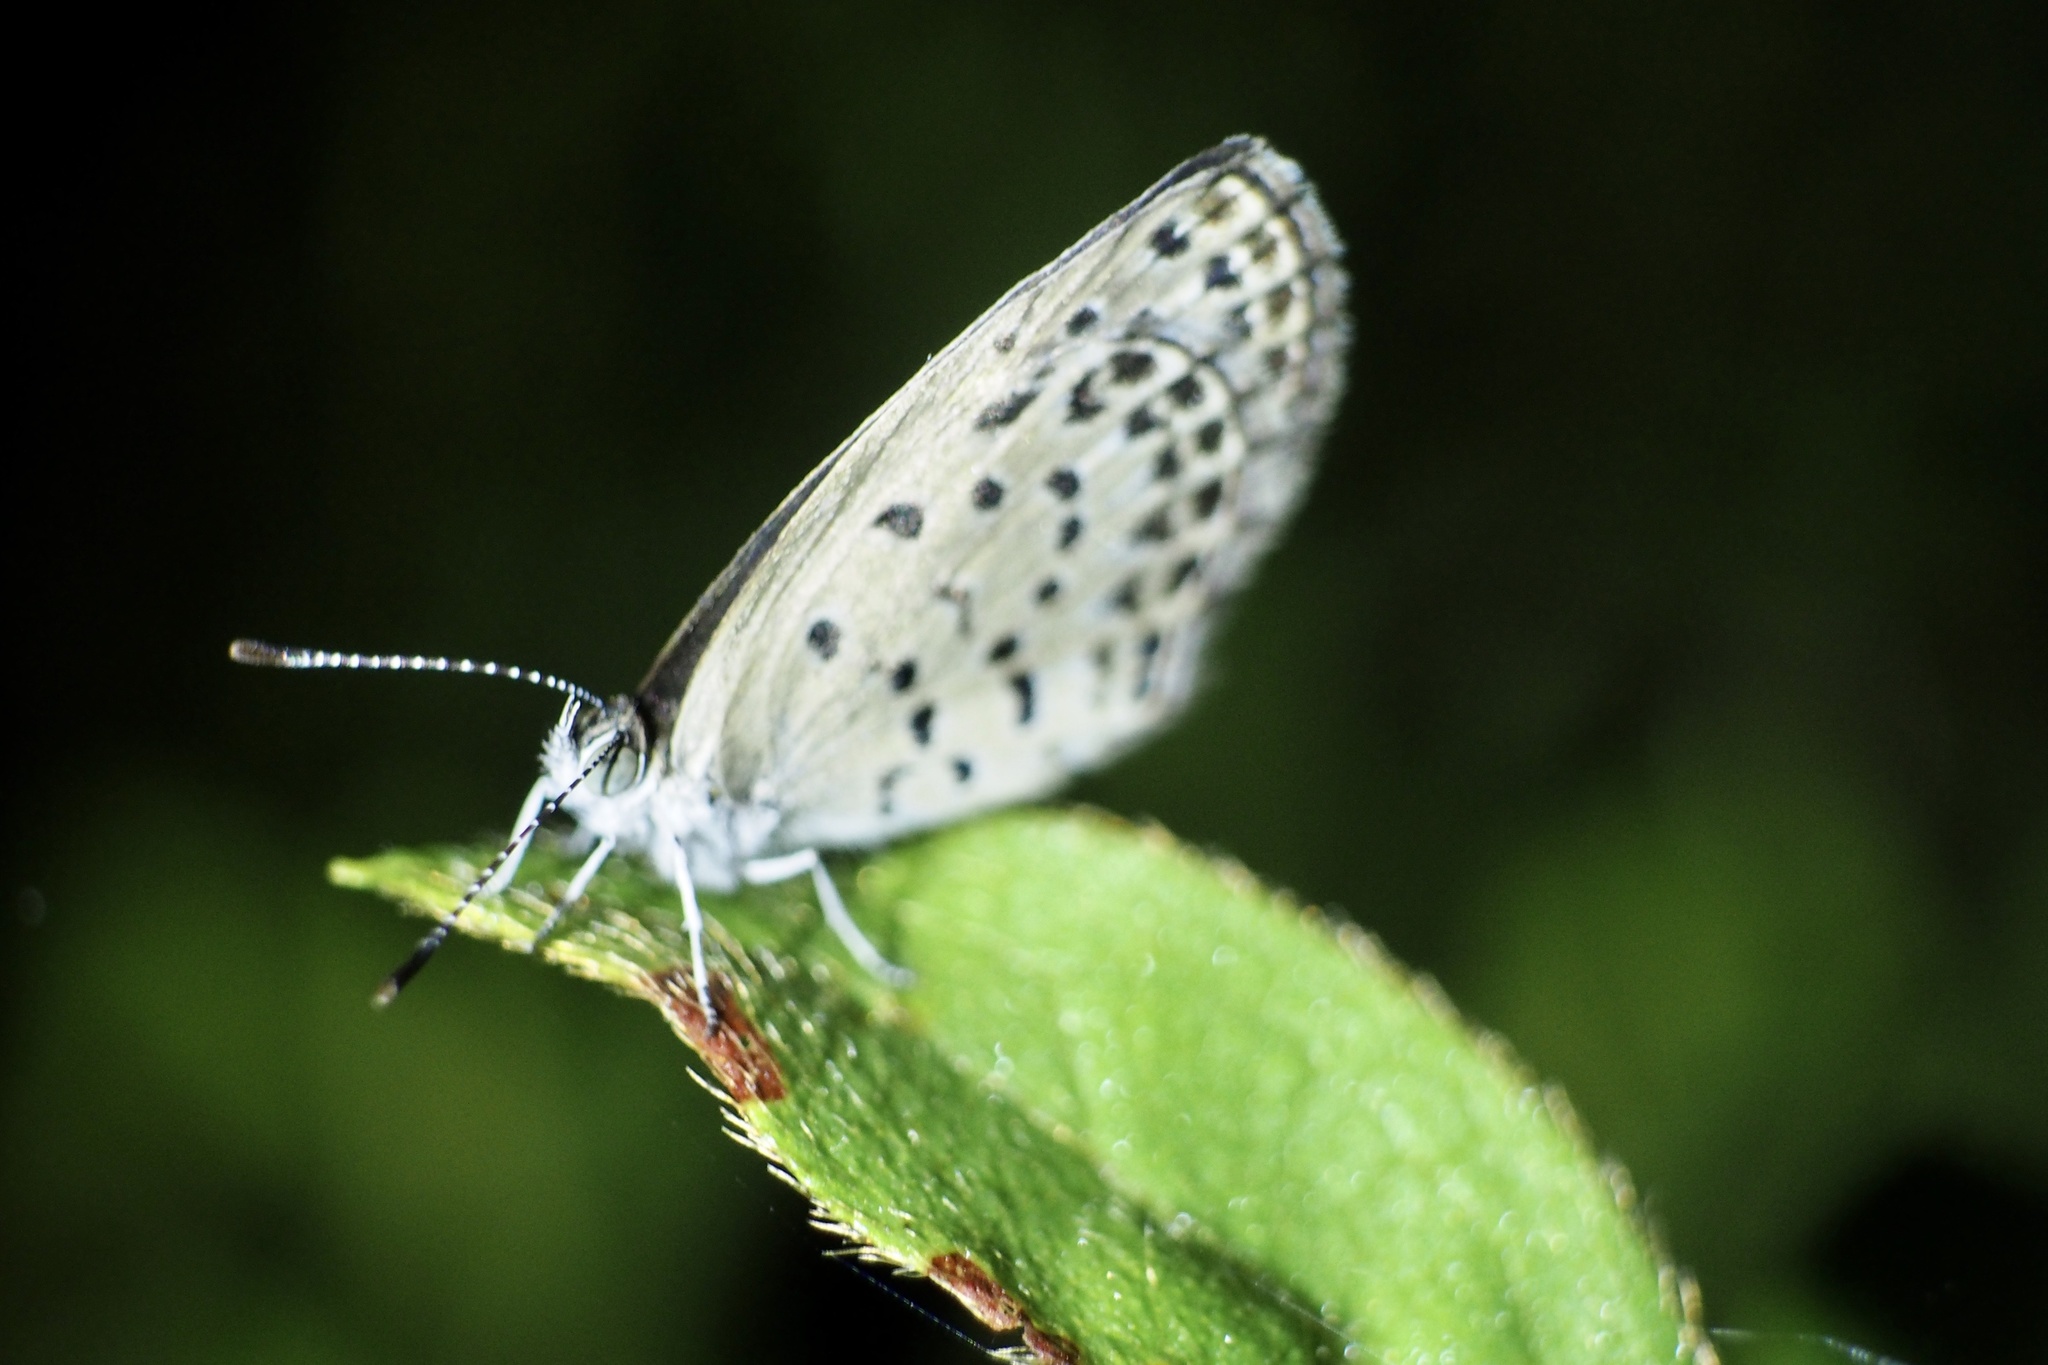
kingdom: Animalia
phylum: Arthropoda
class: Insecta
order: Lepidoptera
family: Lycaenidae
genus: Pseudozizeeria
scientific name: Pseudozizeeria maha
